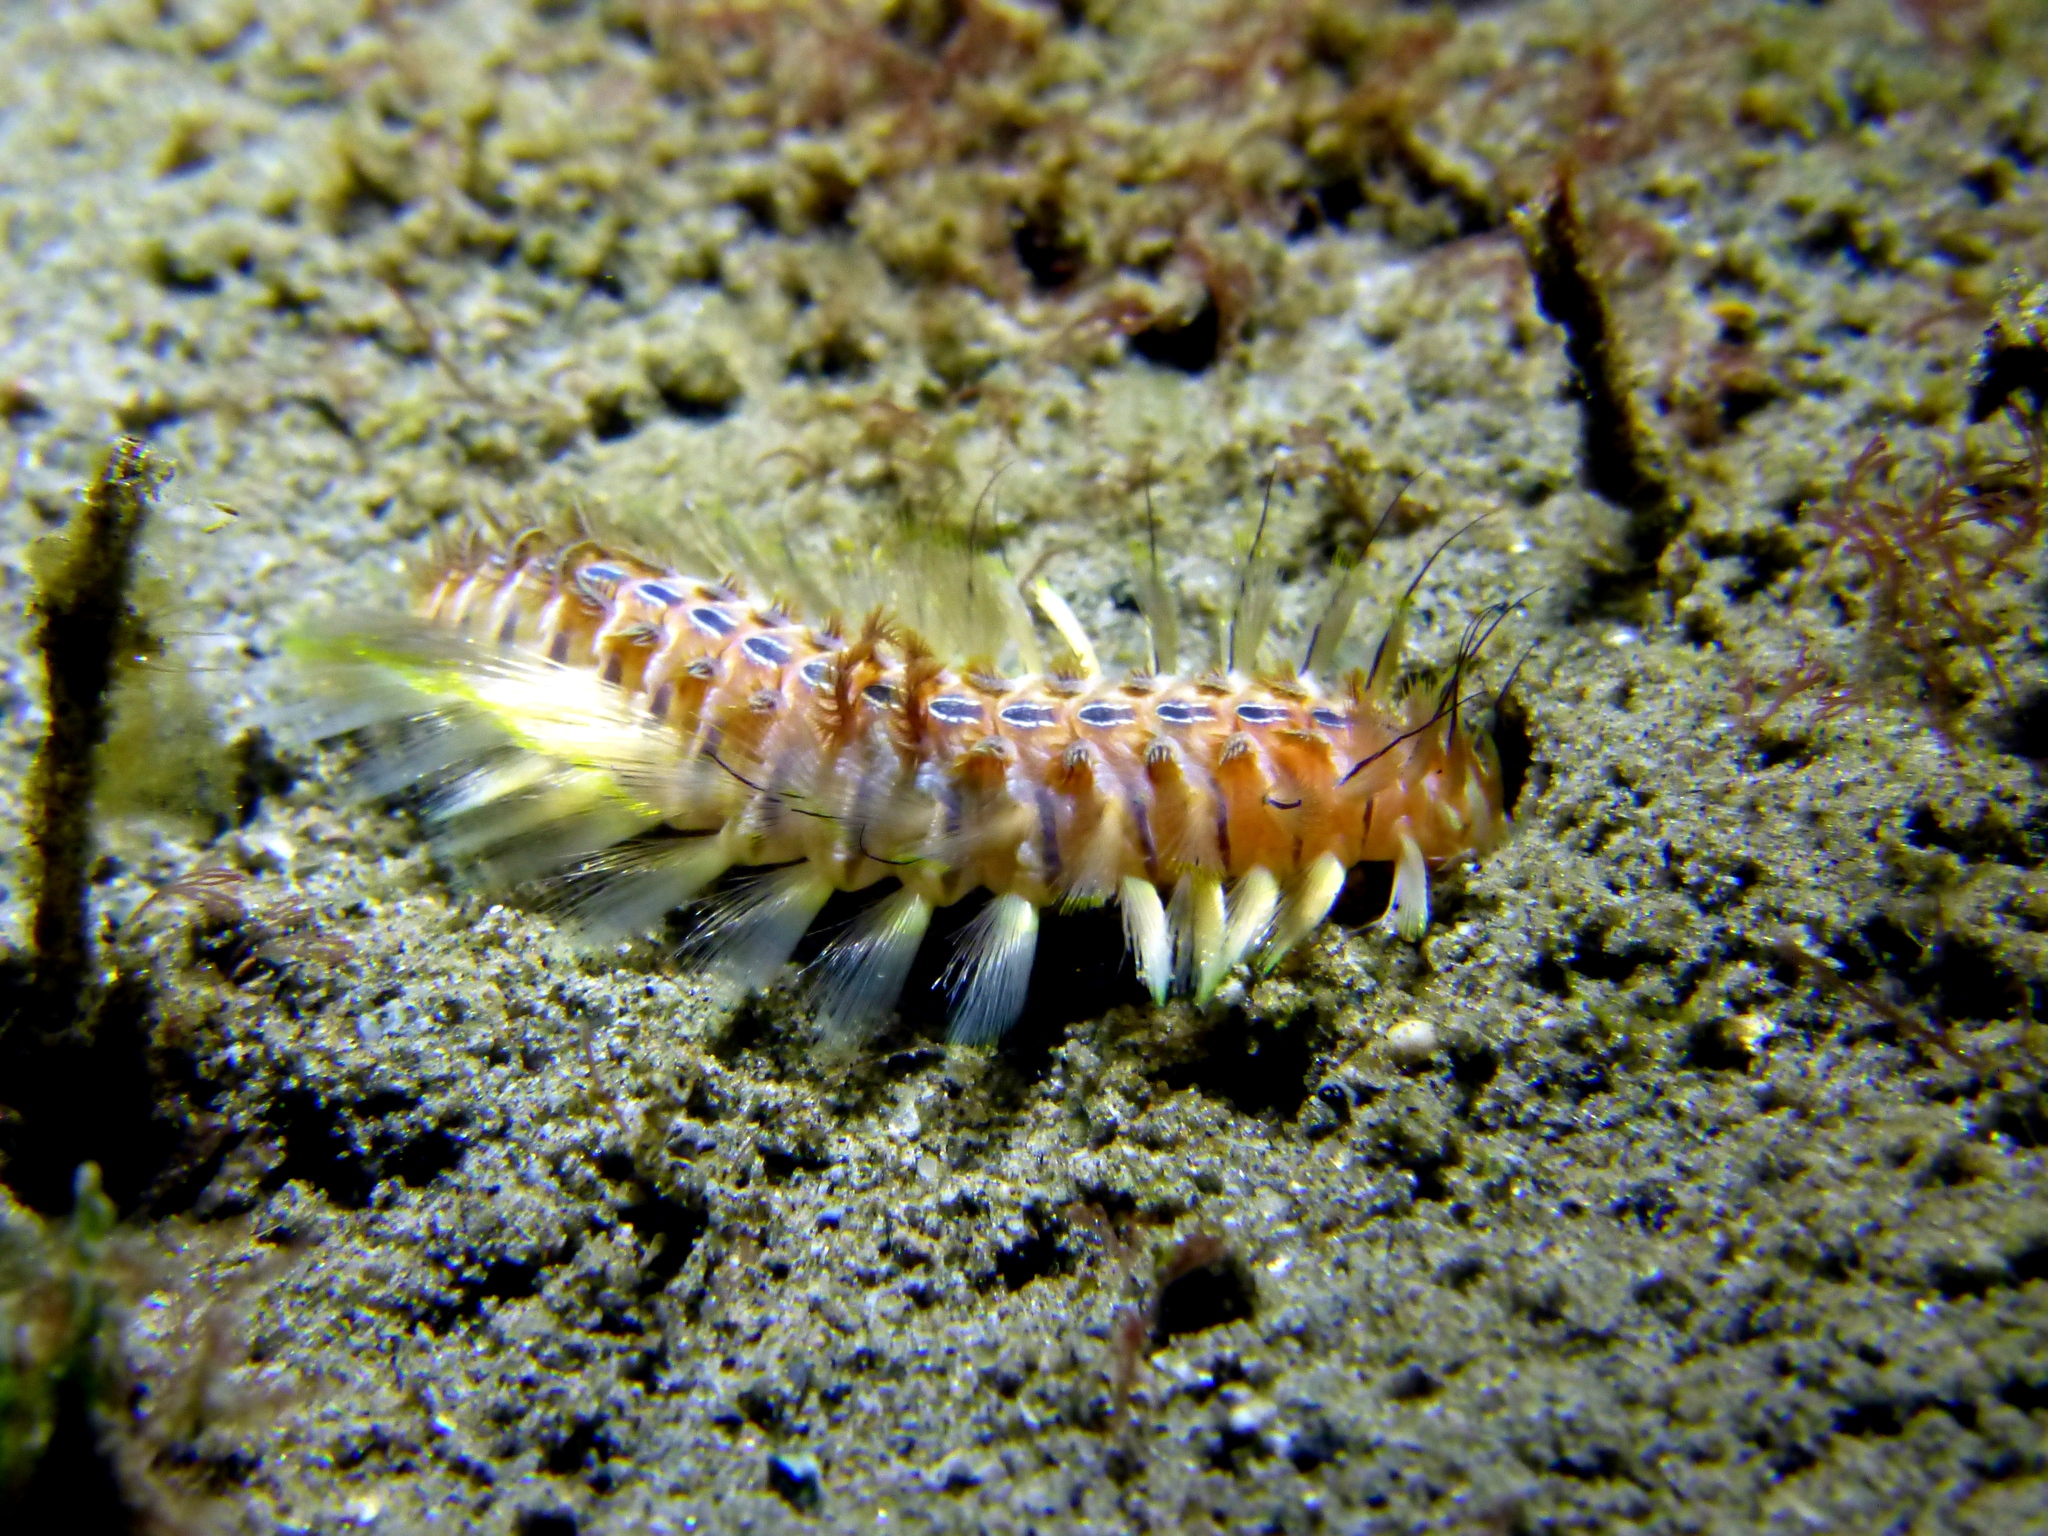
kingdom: Animalia
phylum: Annelida
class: Polychaeta
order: Amphinomida
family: Amphinomidae
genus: Chloeia
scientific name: Chloeia amphora
